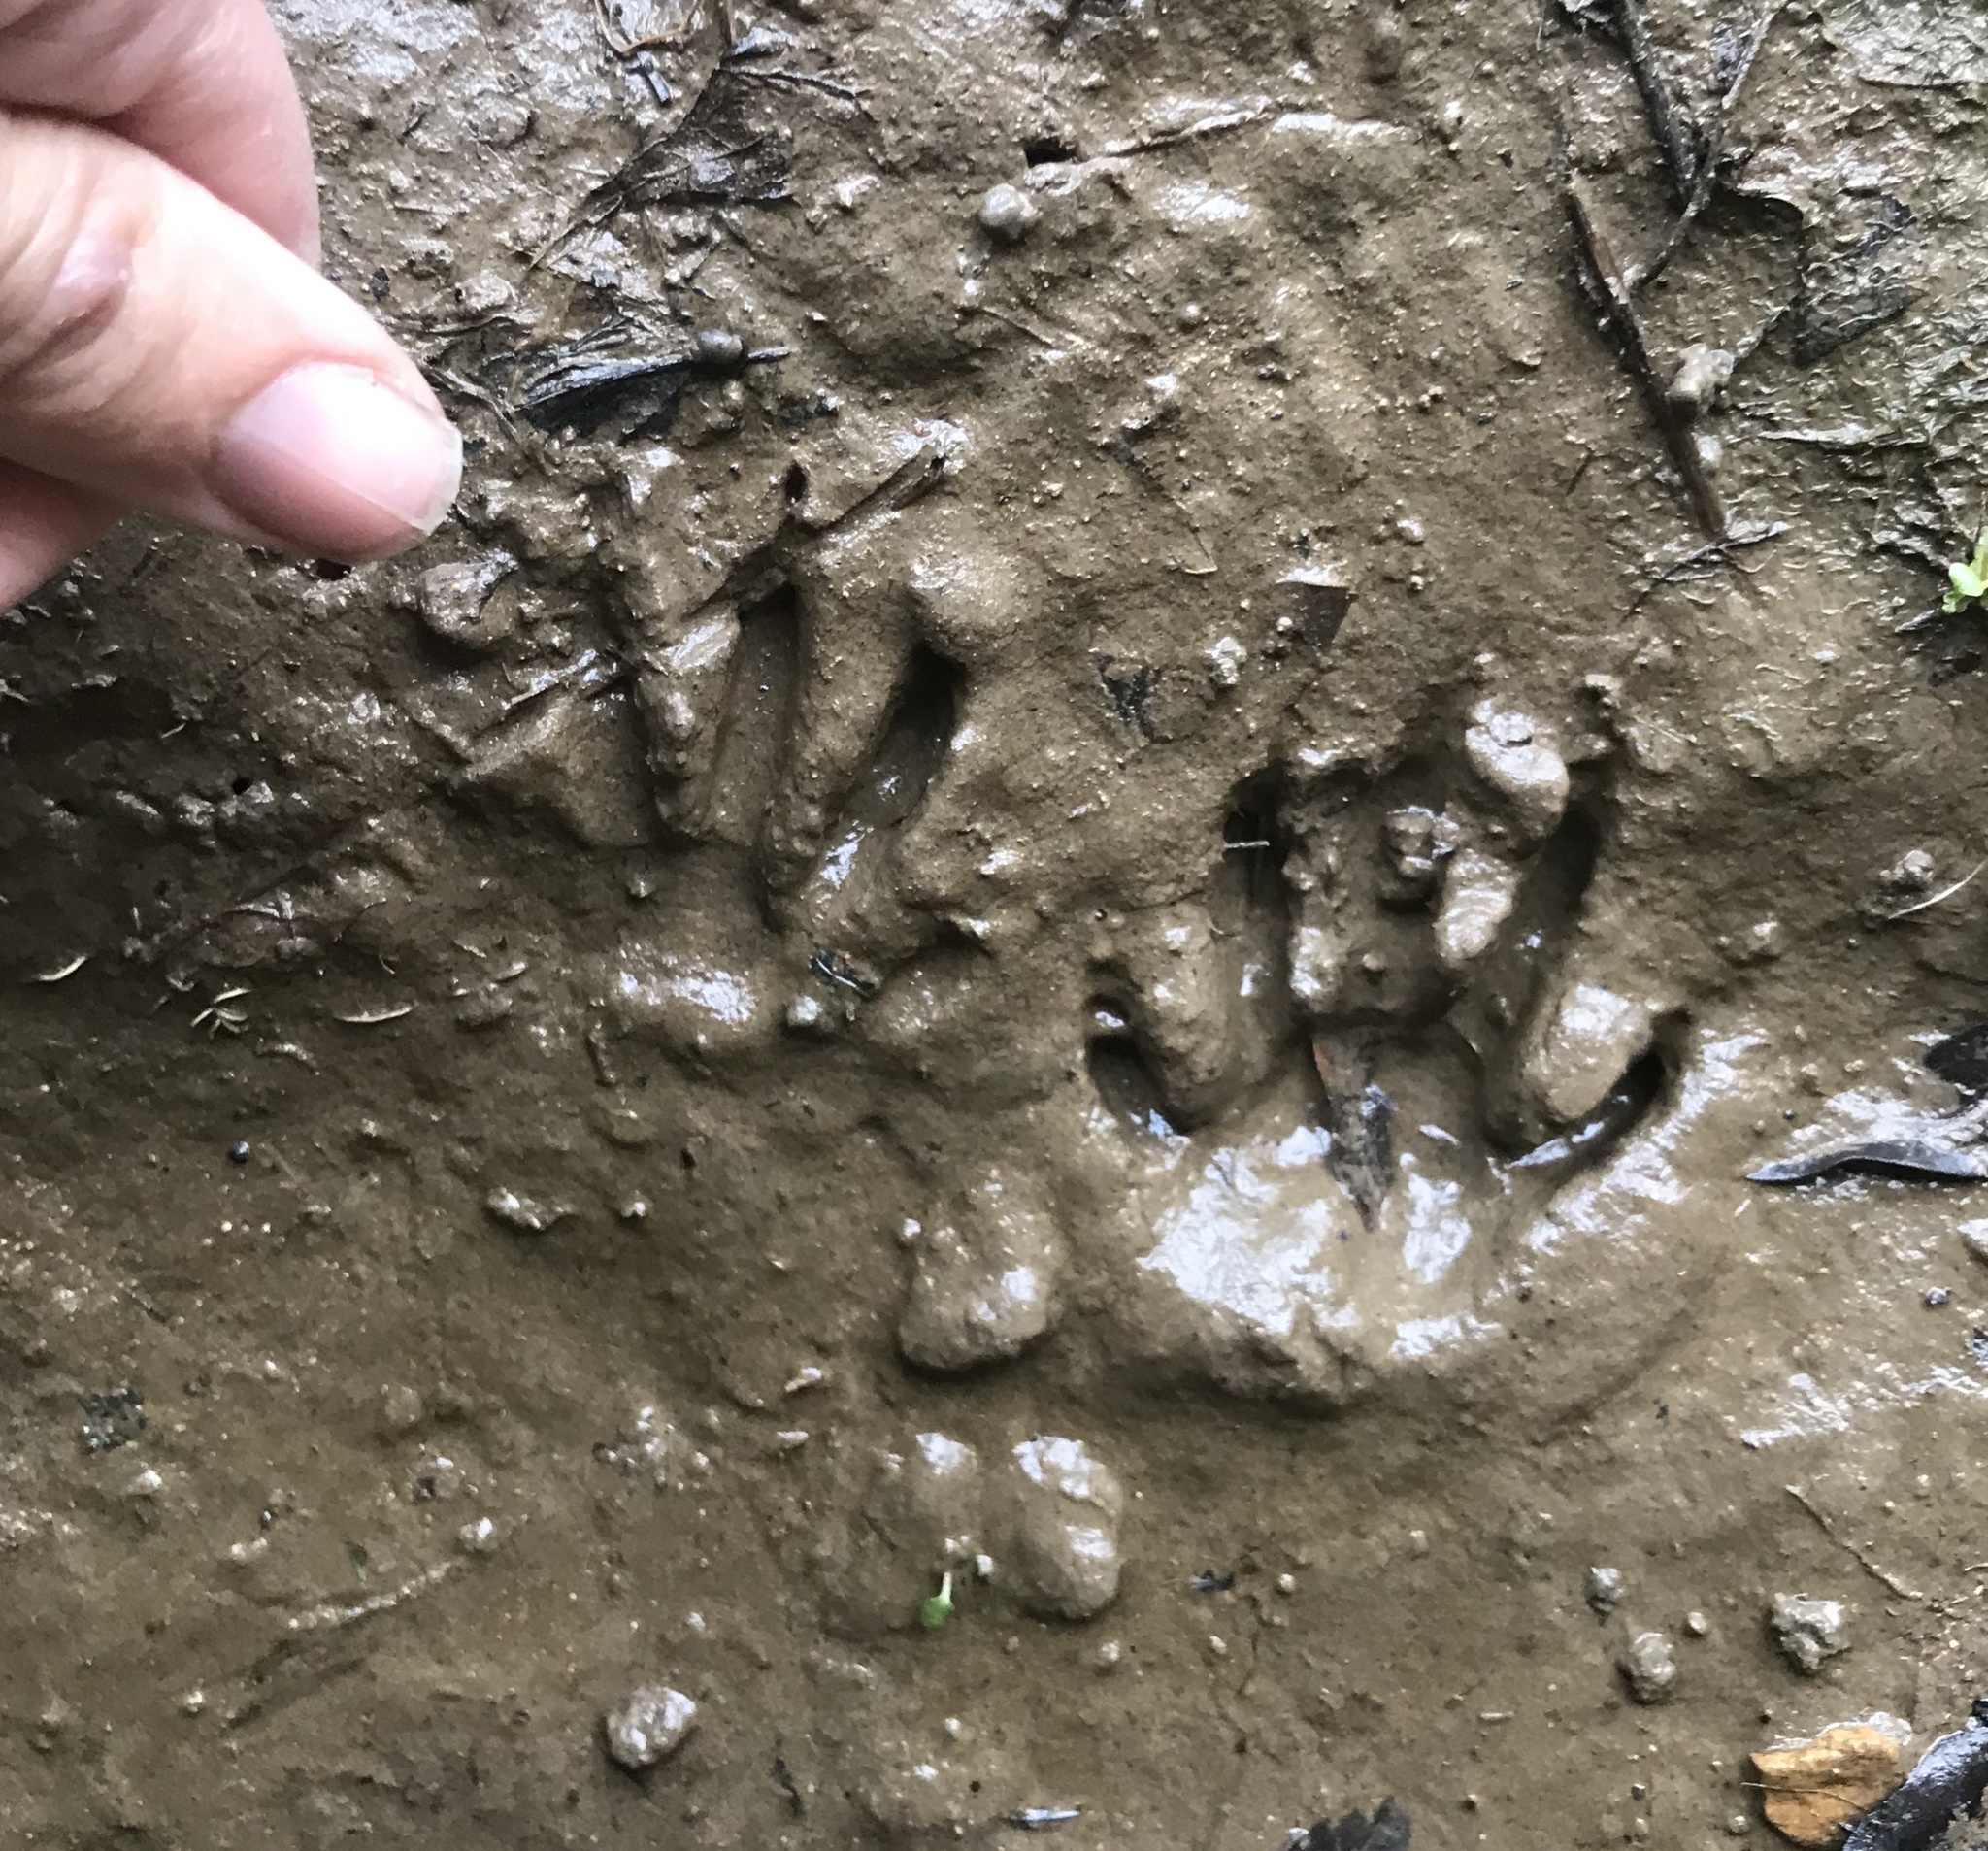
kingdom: Animalia
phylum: Chordata
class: Mammalia
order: Carnivora
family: Procyonidae
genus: Procyon
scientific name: Procyon lotor
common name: Raccoon
